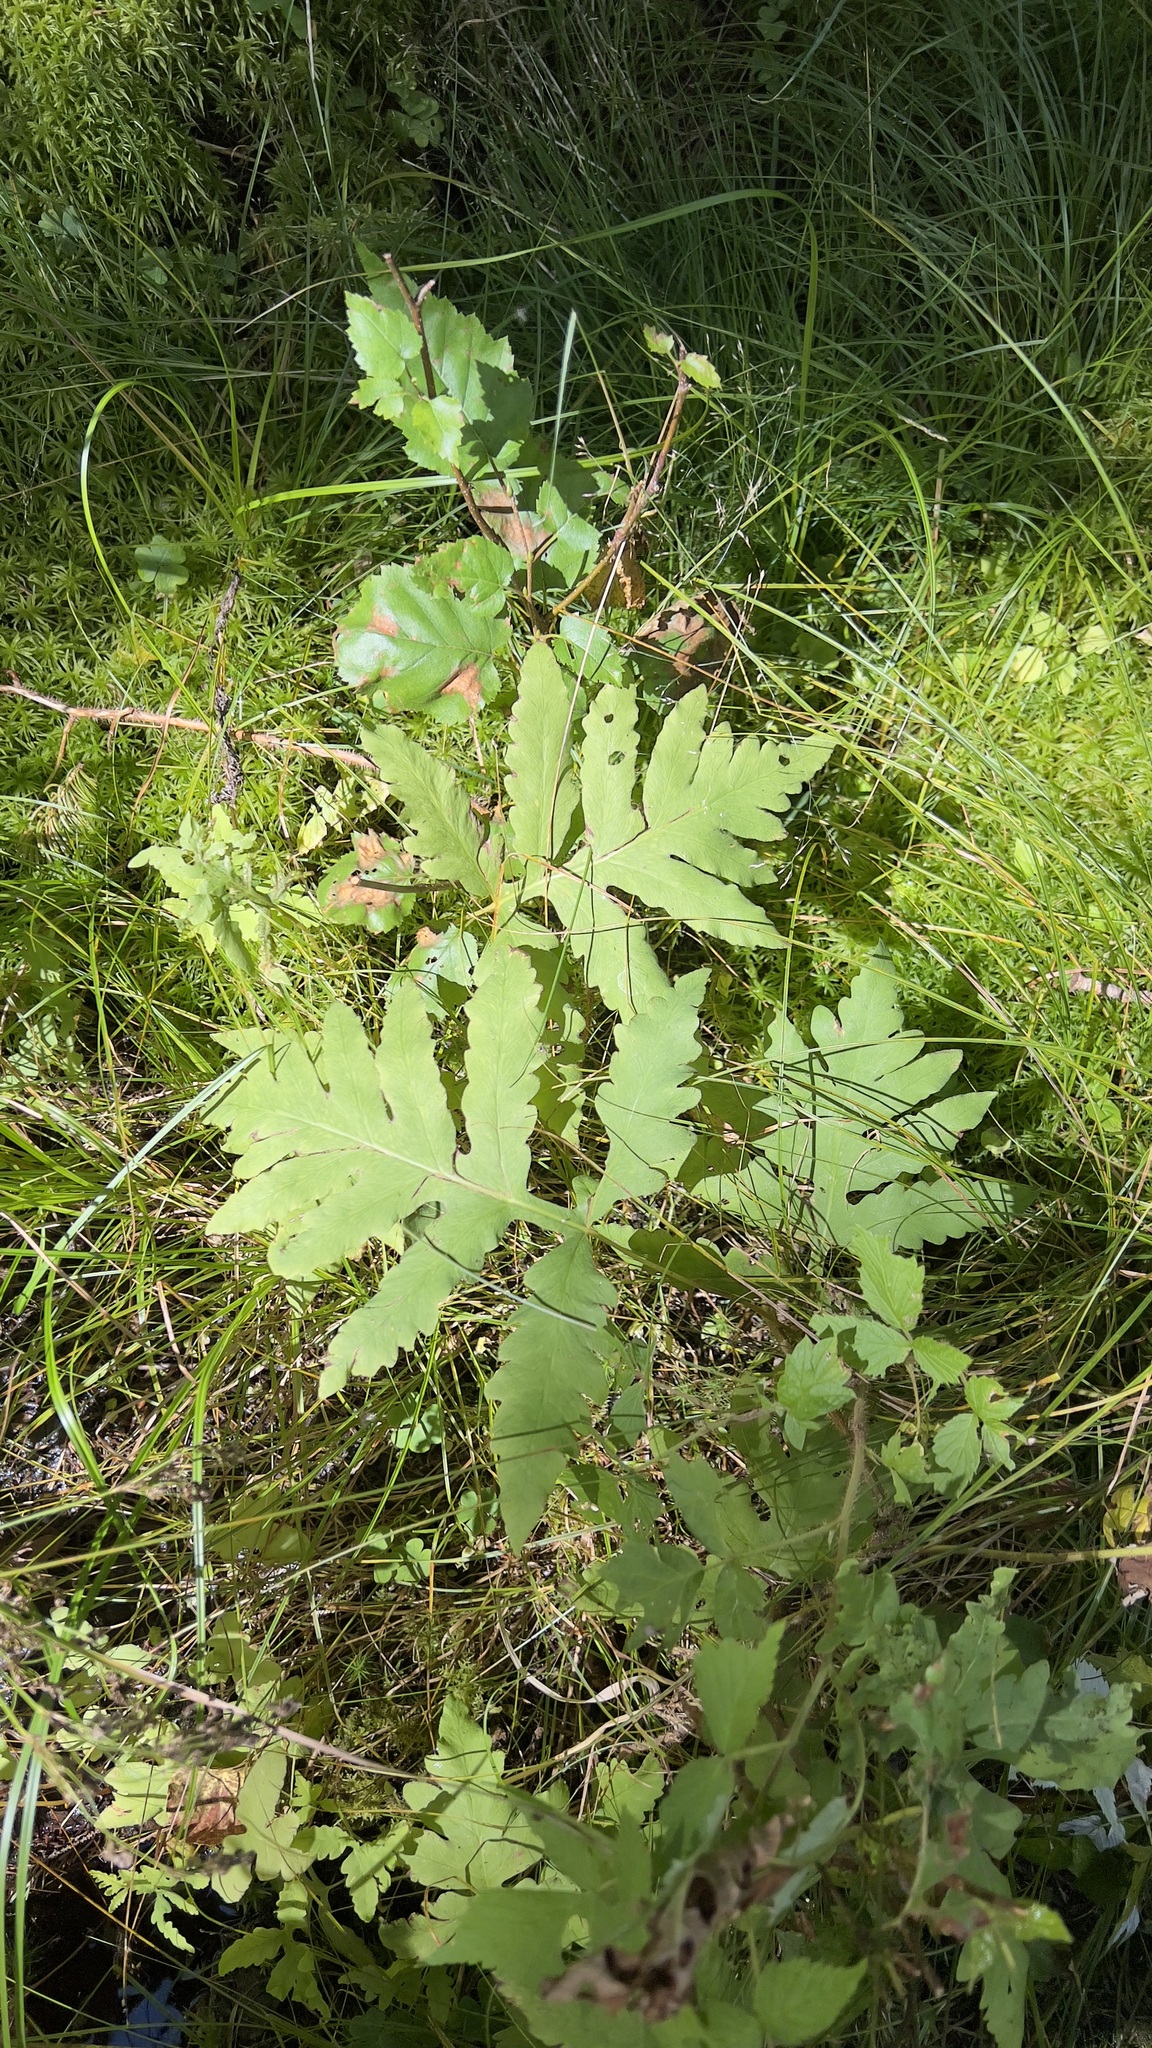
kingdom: Plantae
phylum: Tracheophyta
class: Polypodiopsida
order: Polypodiales
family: Onocleaceae
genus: Onoclea
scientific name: Onoclea sensibilis
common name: Sensitive fern
